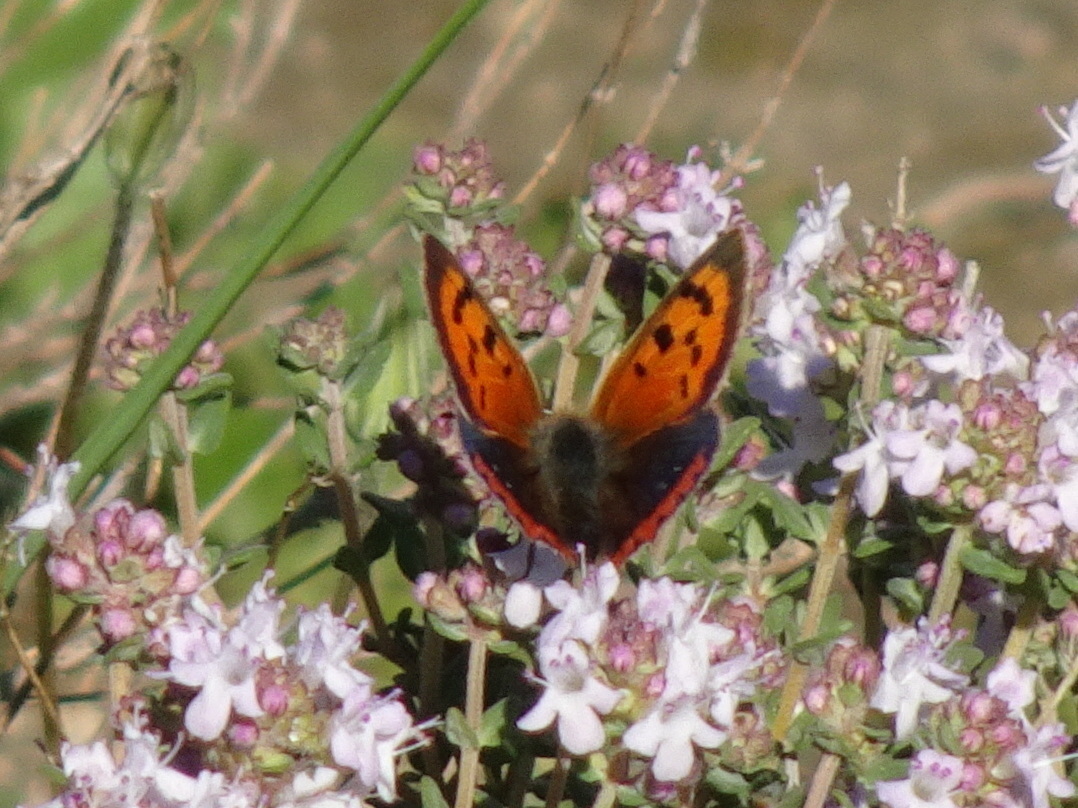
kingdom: Animalia
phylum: Arthropoda
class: Insecta
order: Lepidoptera
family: Lycaenidae
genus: Lycaena
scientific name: Lycaena phlaeas
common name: Small copper
